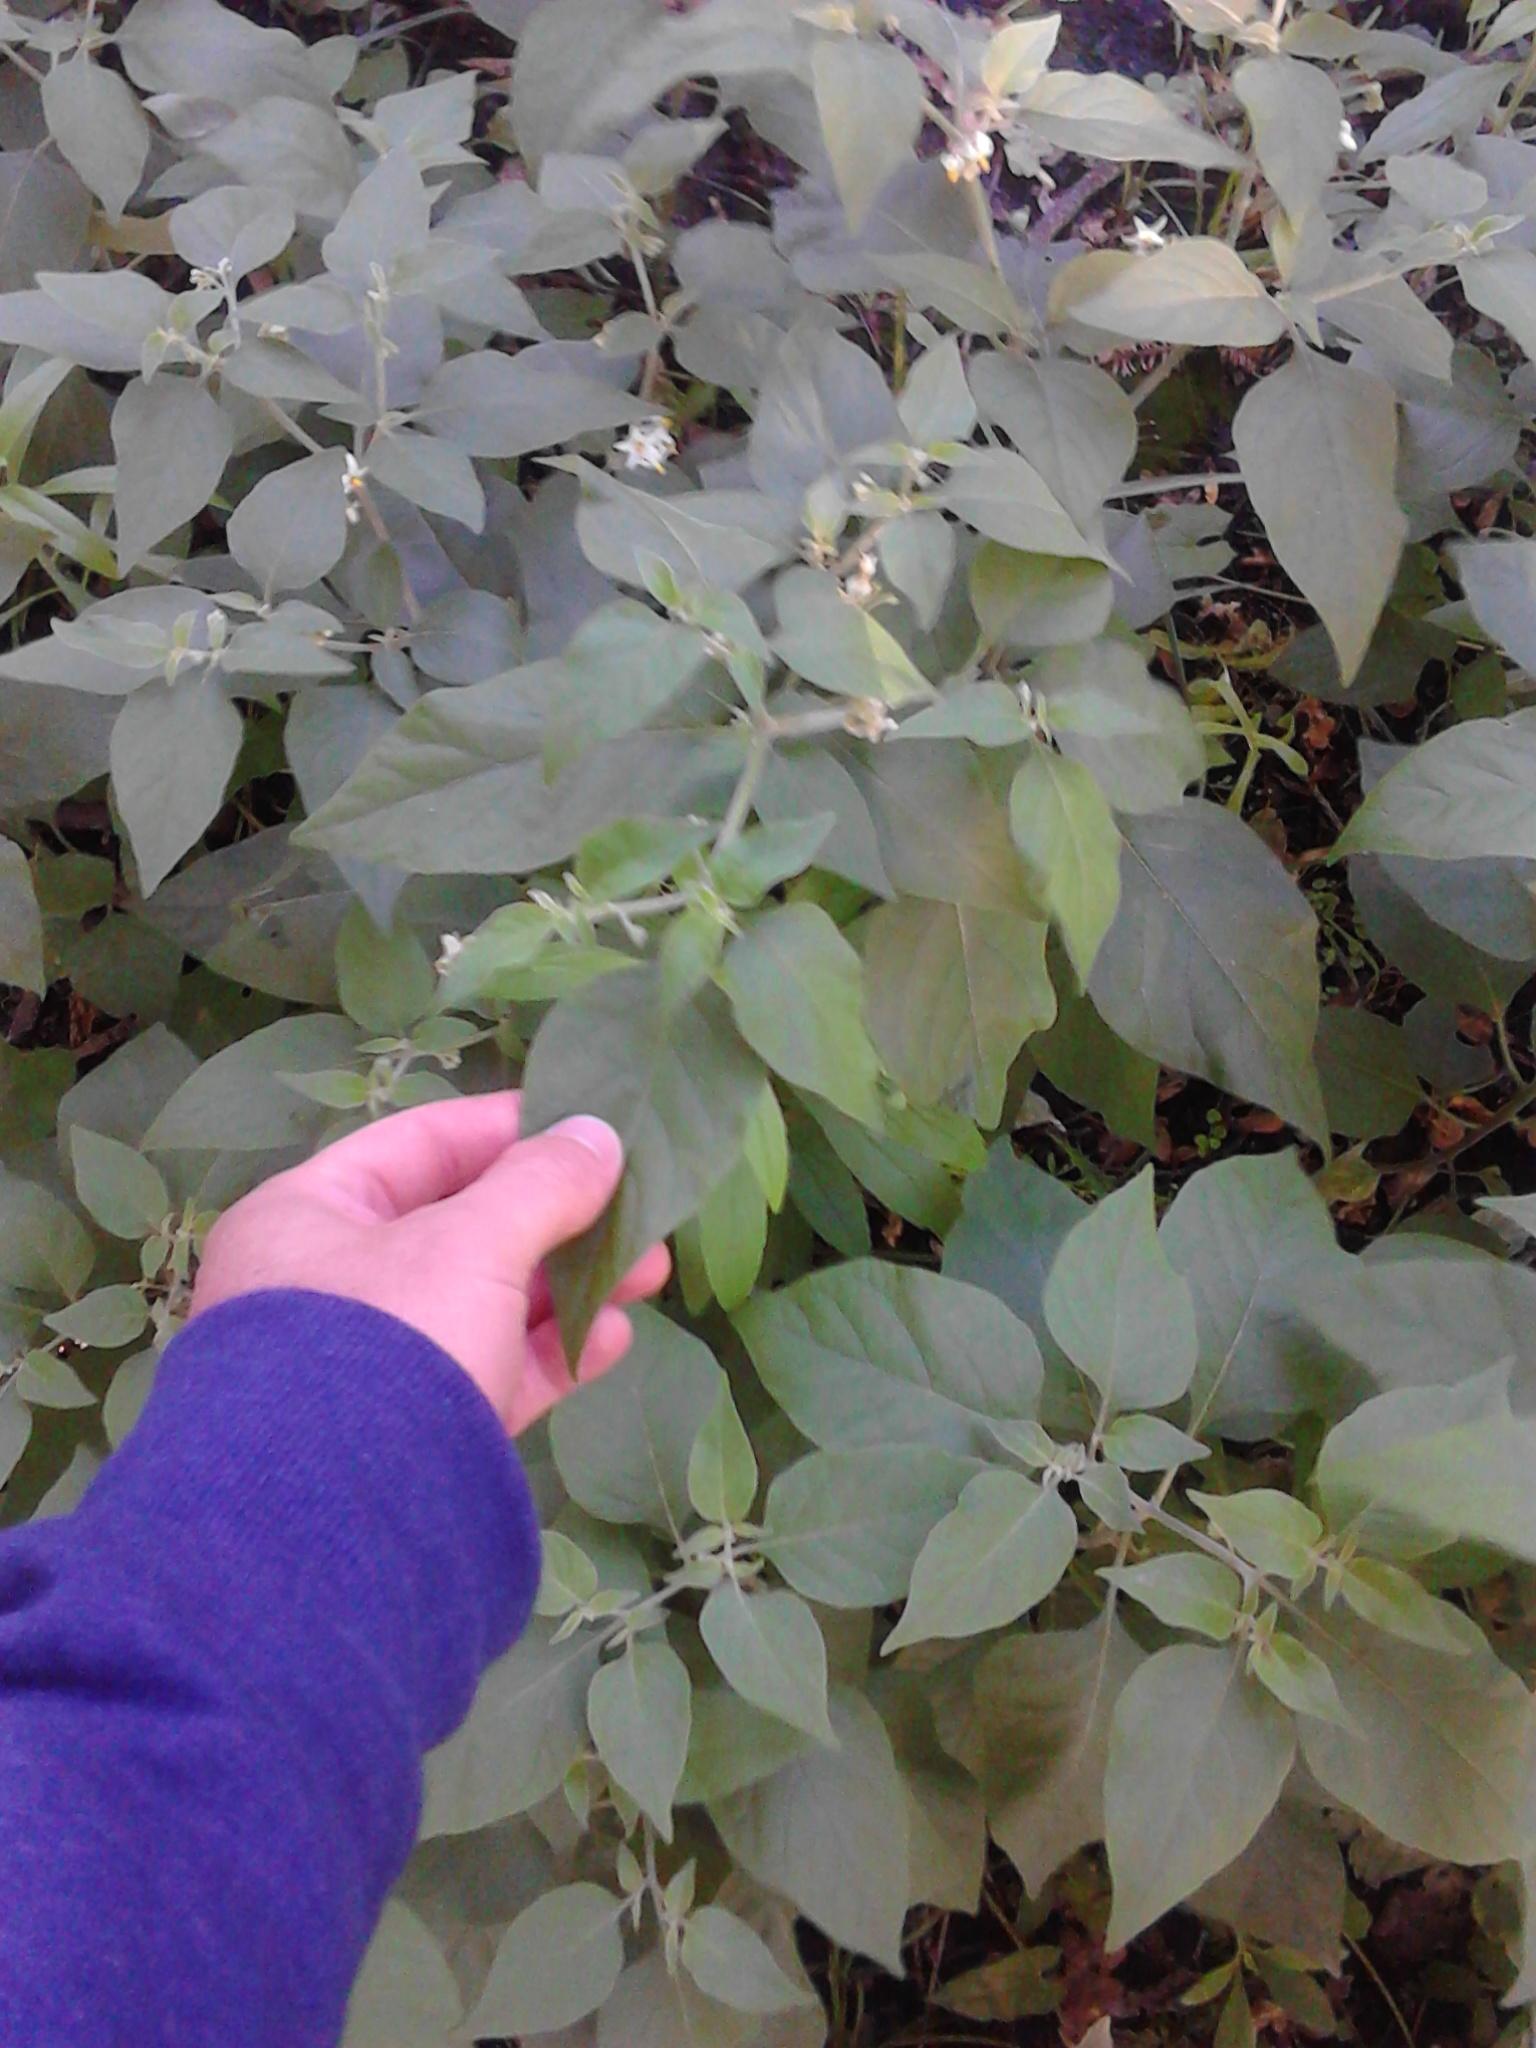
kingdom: Plantae
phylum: Tracheophyta
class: Magnoliopsida
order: Solanales
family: Solanaceae
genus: Solanum
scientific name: Solanum chenopodioides
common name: Tall nightshade
